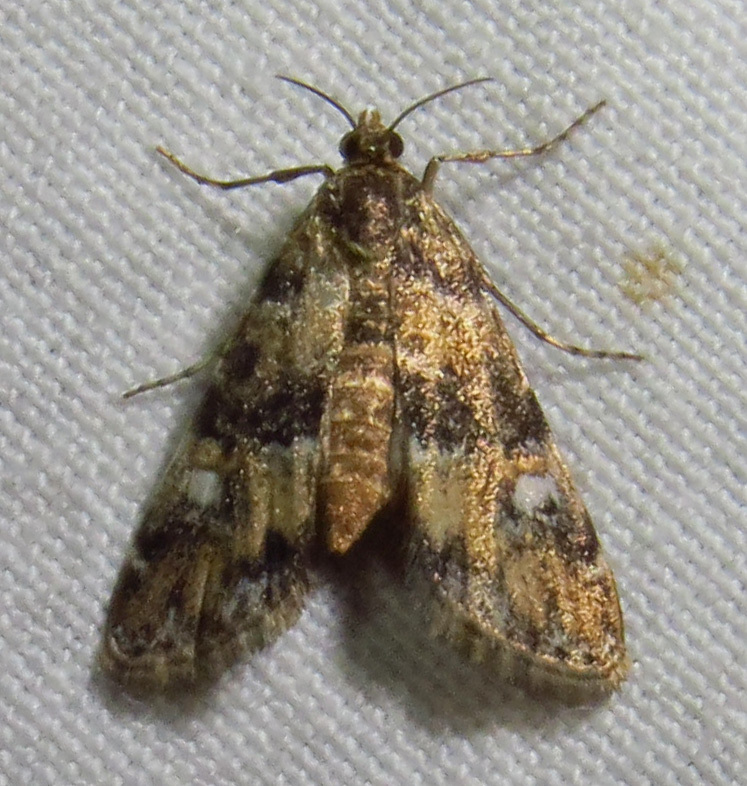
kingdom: Animalia
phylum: Arthropoda
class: Insecta
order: Lepidoptera
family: Crambidae
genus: Elophila
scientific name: Elophila obliteralis
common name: Waterlily leafcutter moth
